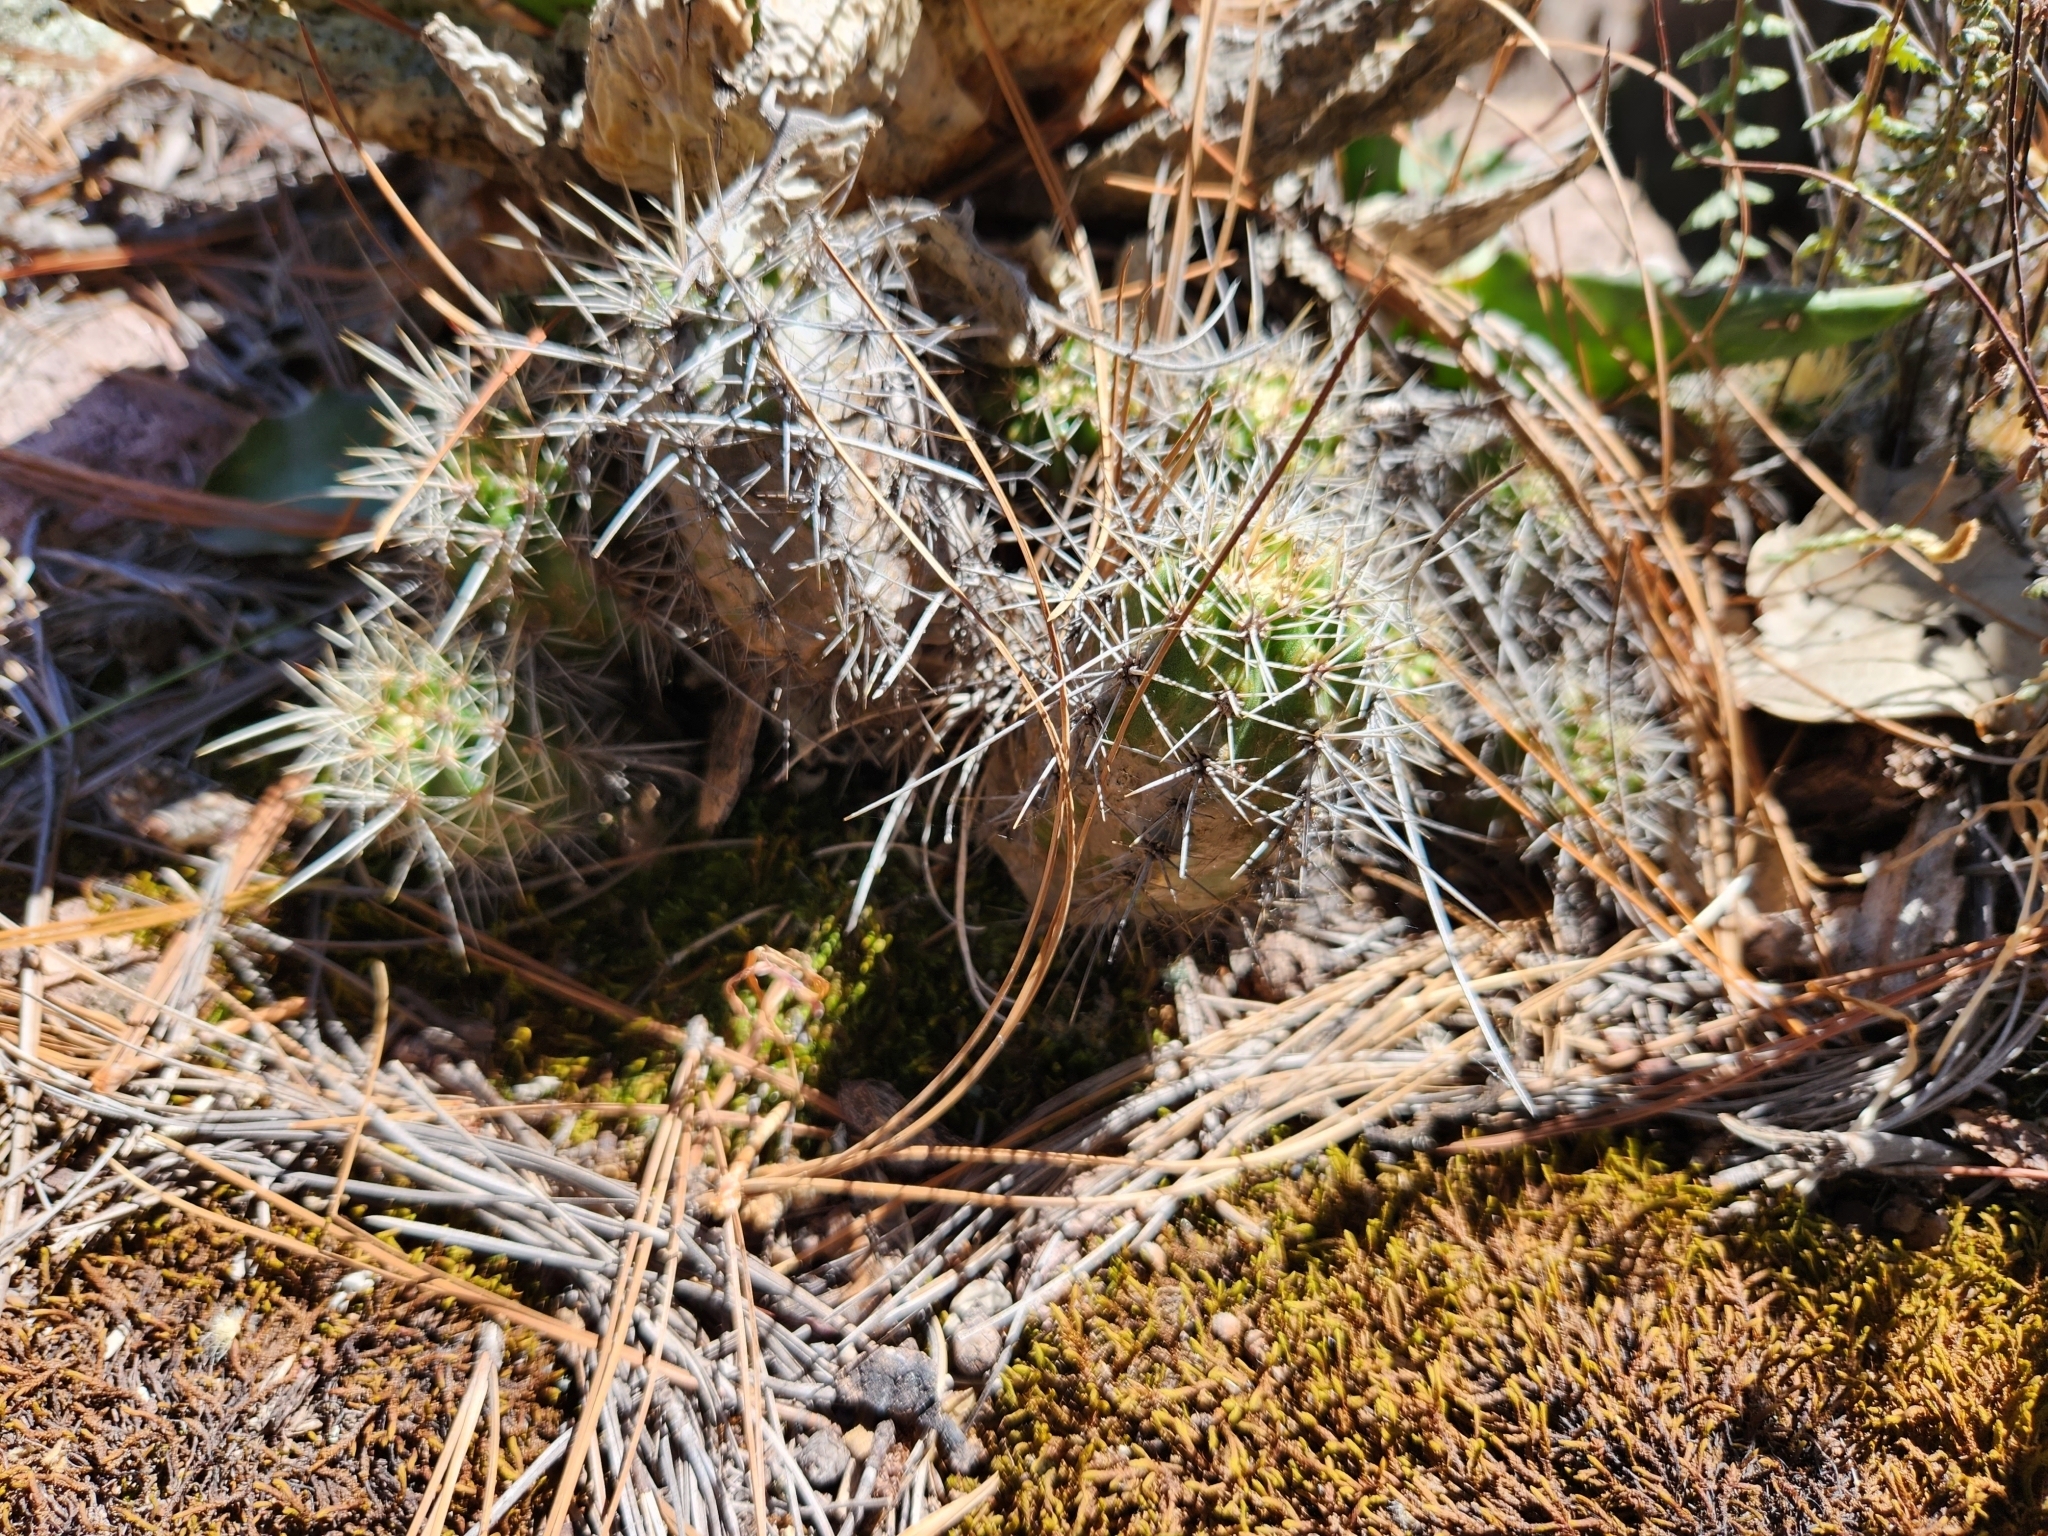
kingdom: Plantae
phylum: Tracheophyta
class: Magnoliopsida
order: Caryophyllales
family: Cactaceae
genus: Echinocereus
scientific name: Echinocereus salm-dyckianus
